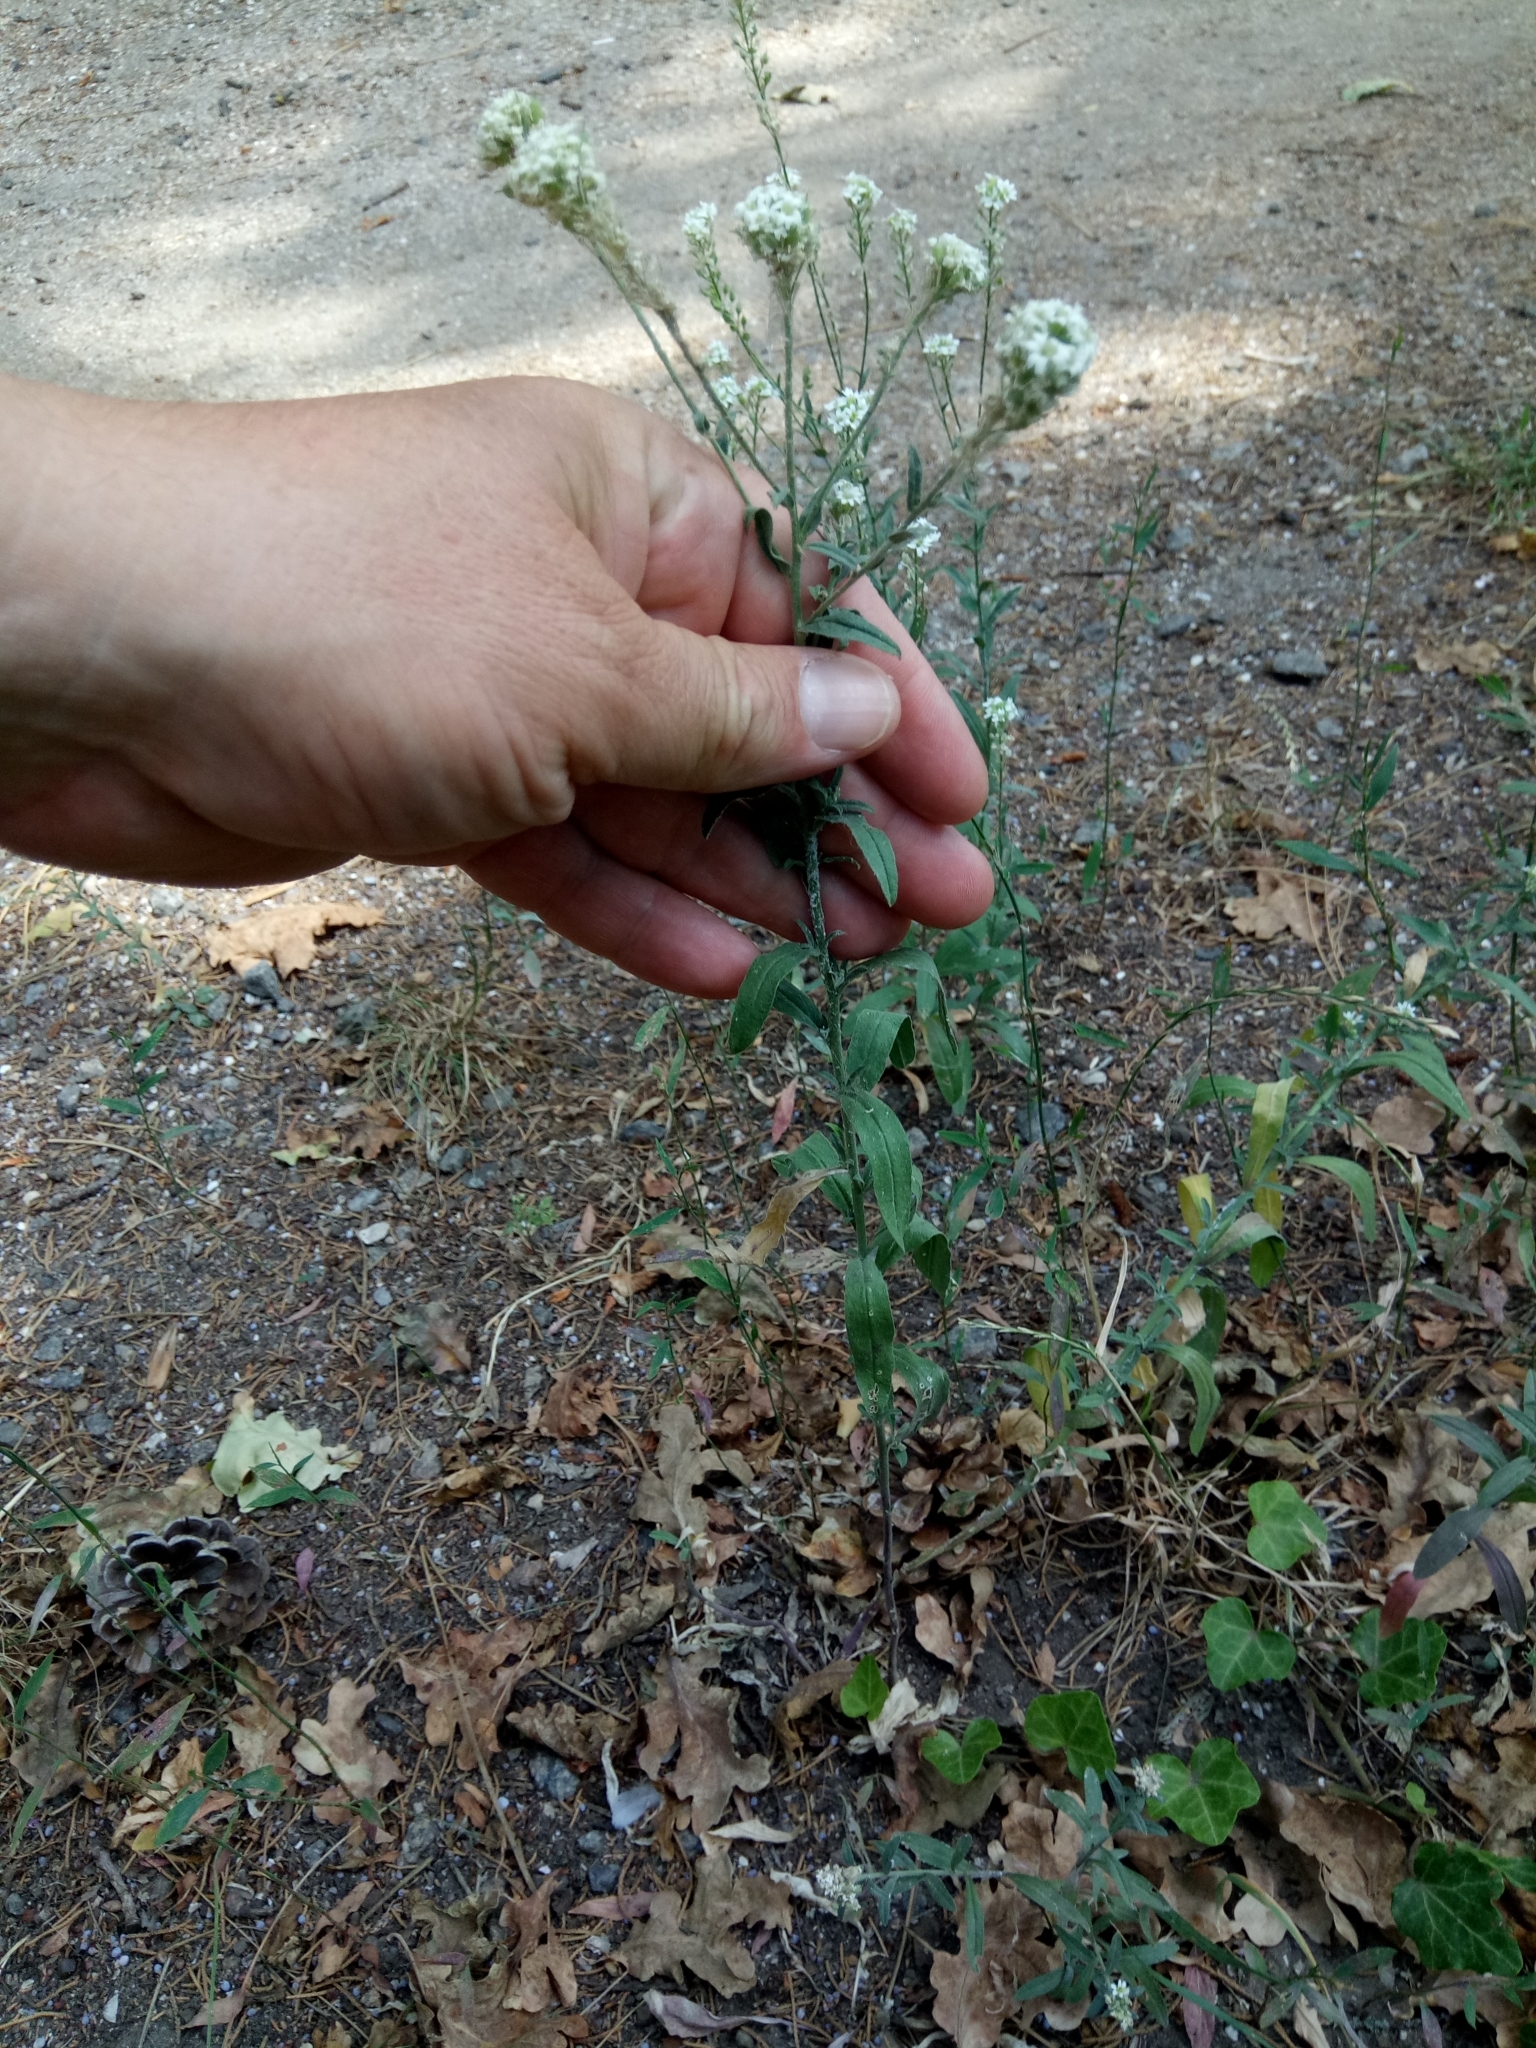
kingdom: Plantae
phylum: Tracheophyta
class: Magnoliopsida
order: Brassicales
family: Brassicaceae
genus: Berteroa
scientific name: Berteroa incana
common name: Hoary alison
